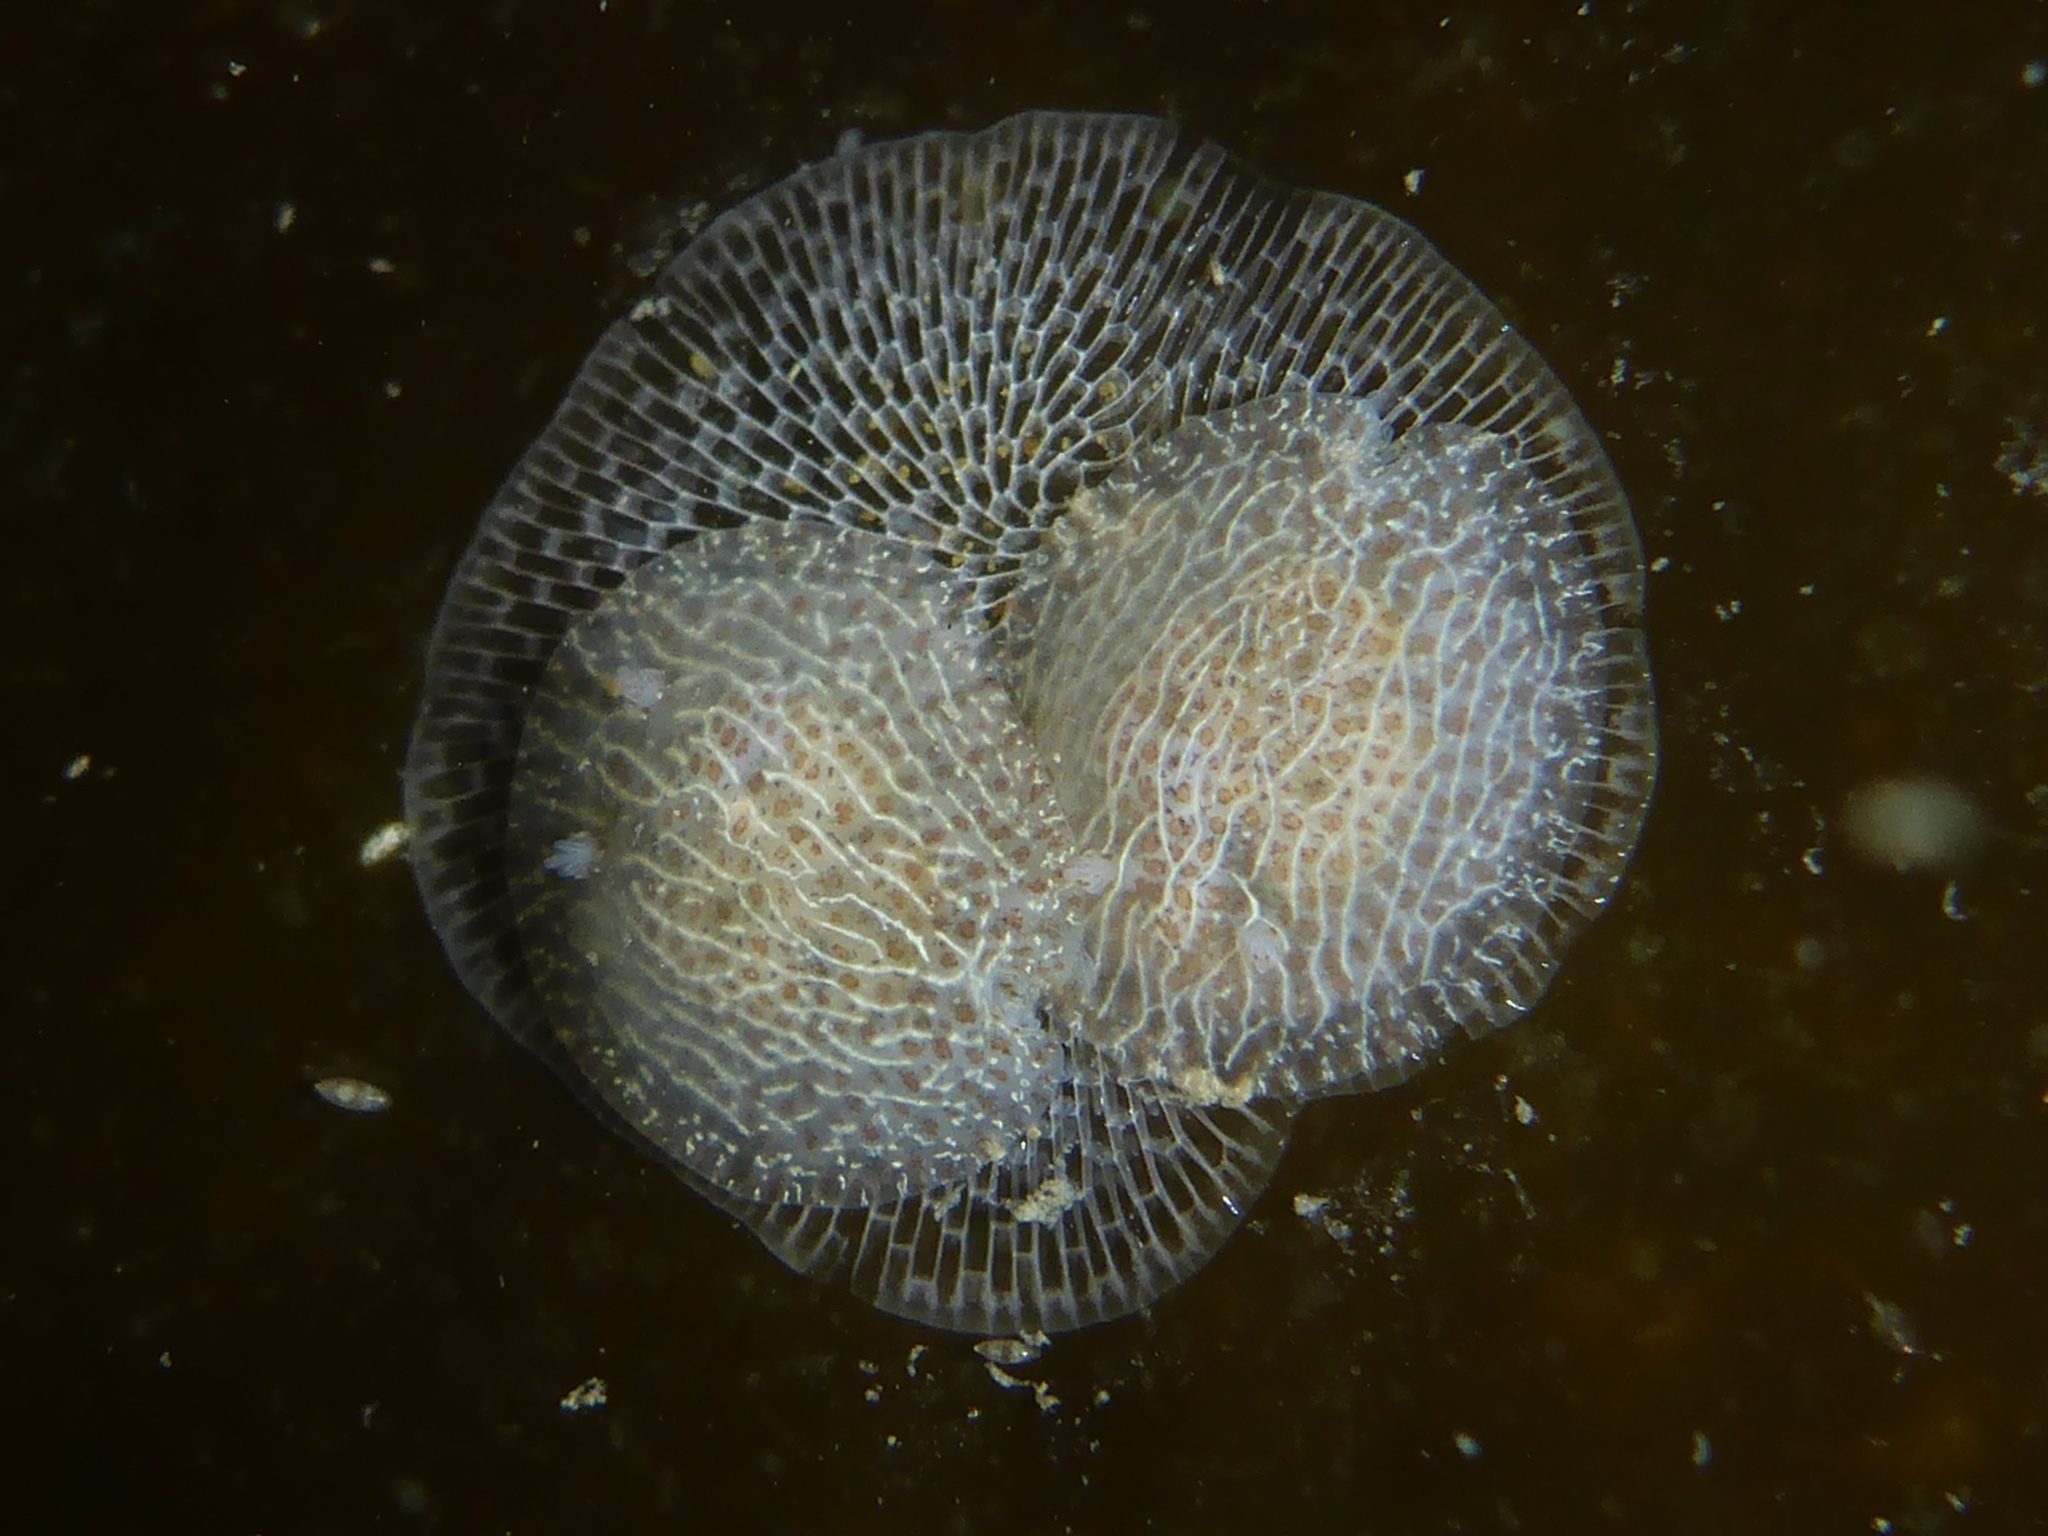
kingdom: Animalia
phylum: Mollusca
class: Gastropoda
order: Nudibranchia
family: Corambidae
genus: Corambe
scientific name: Corambe pacifica
